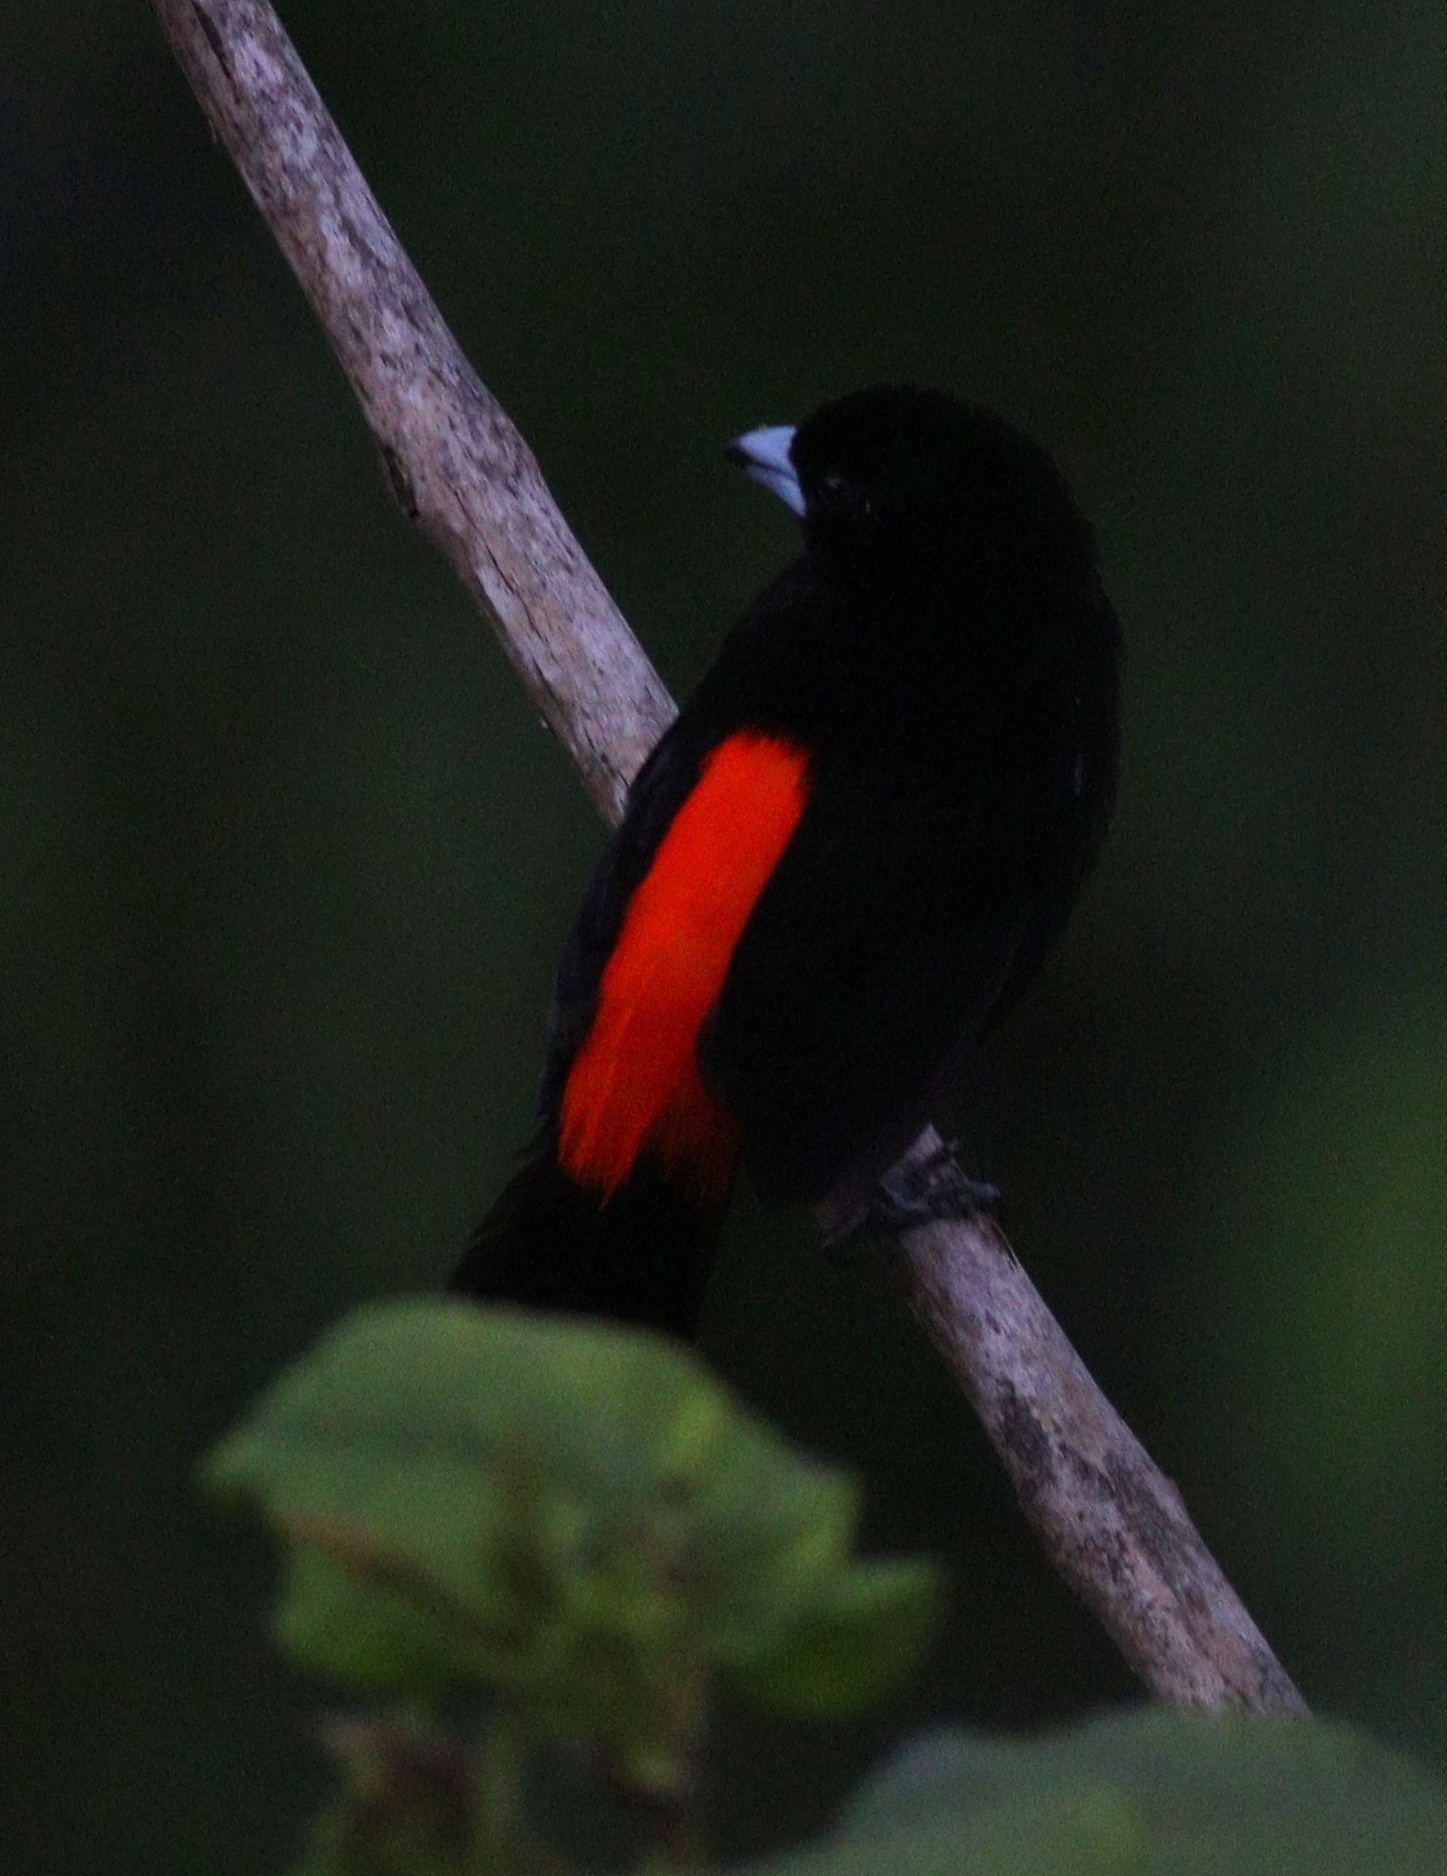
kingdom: Animalia
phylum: Chordata
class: Aves
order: Passeriformes
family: Thraupidae
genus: Ramphocelus
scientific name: Ramphocelus passerinii
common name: Passerini's tanager
